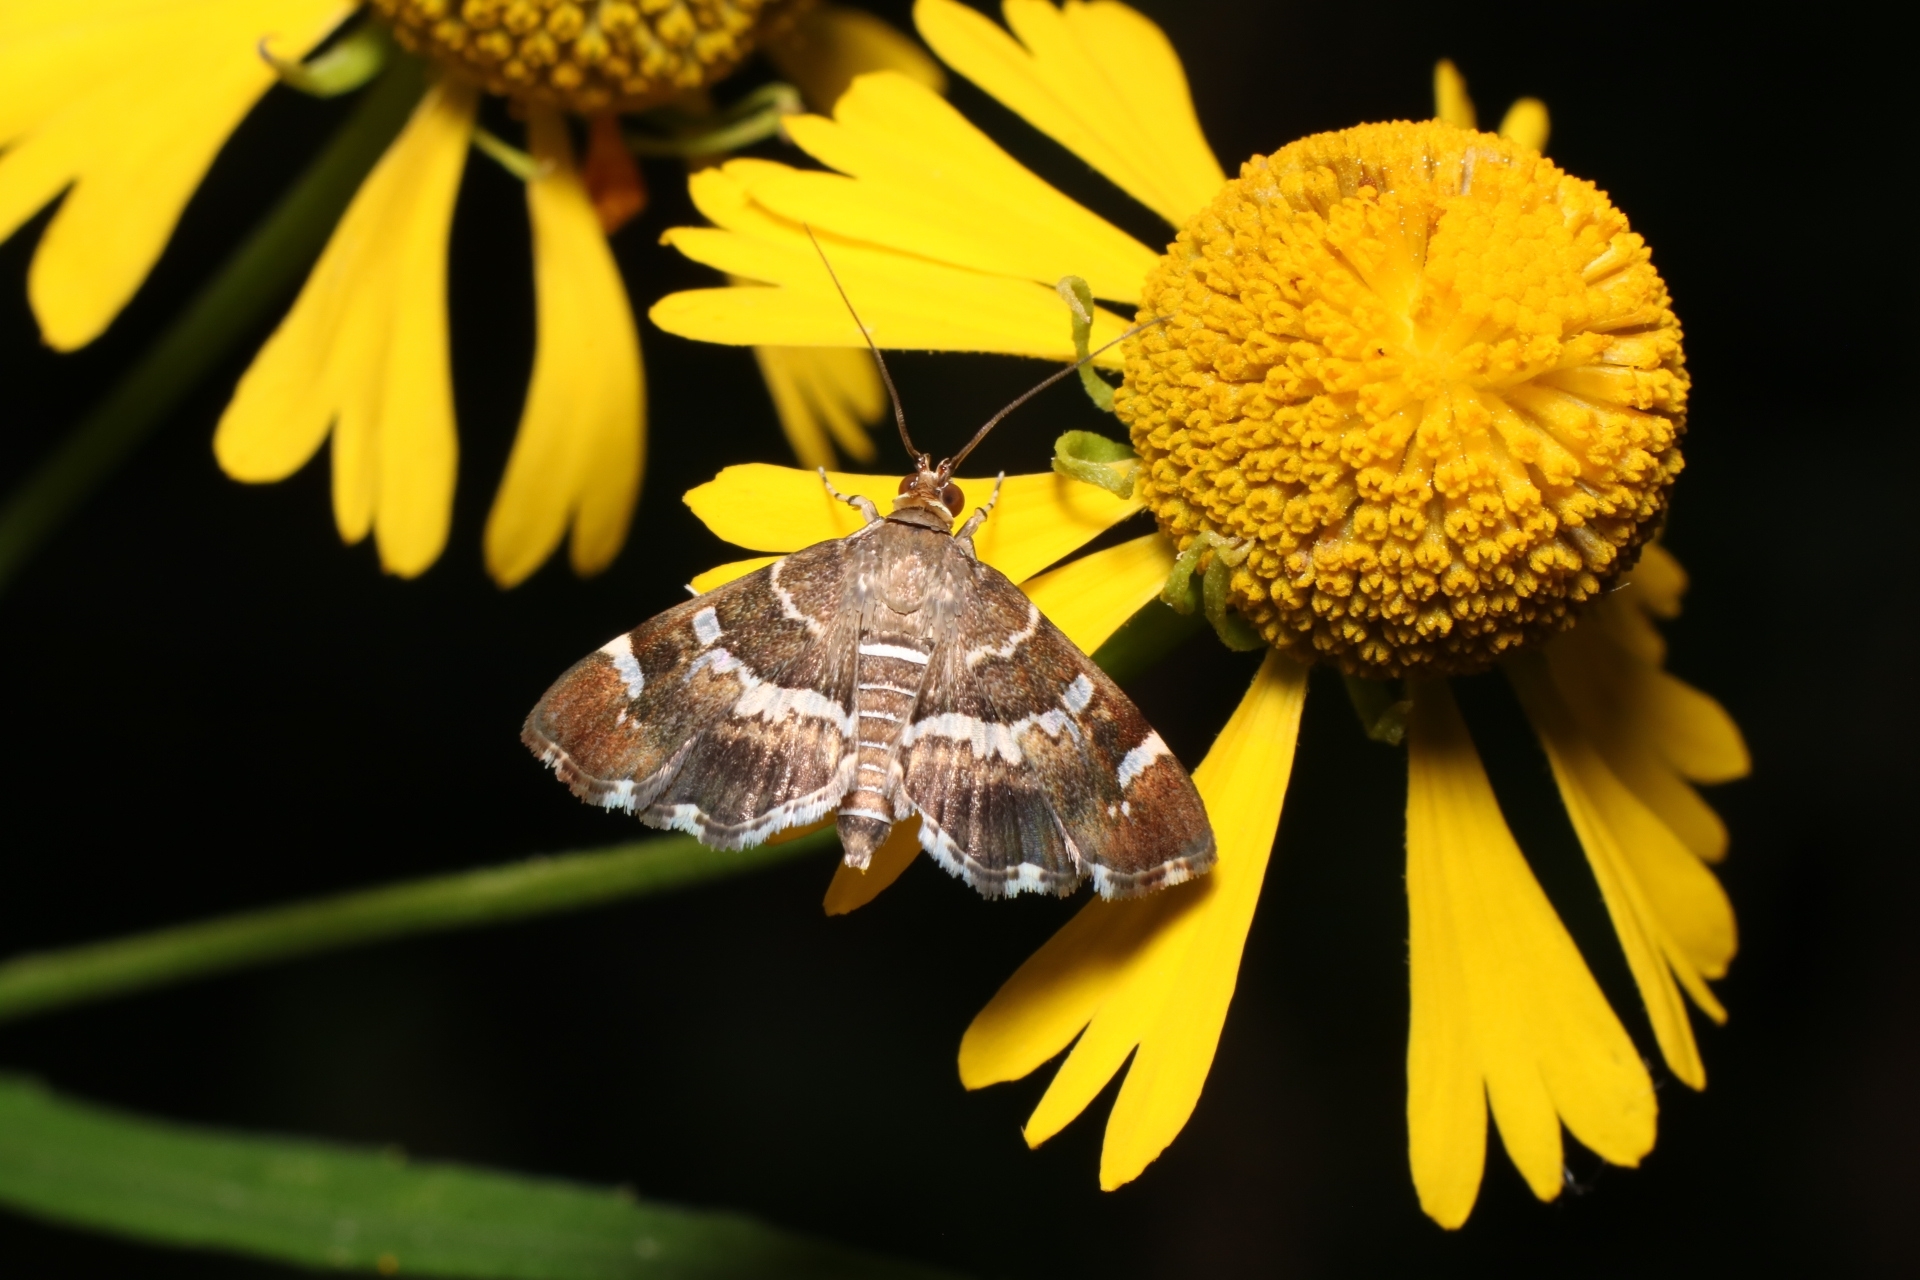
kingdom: Animalia
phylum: Arthropoda
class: Insecta
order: Lepidoptera
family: Crambidae
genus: Hymenia
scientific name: Hymenia perspectalis
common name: Spotted beet webworm
